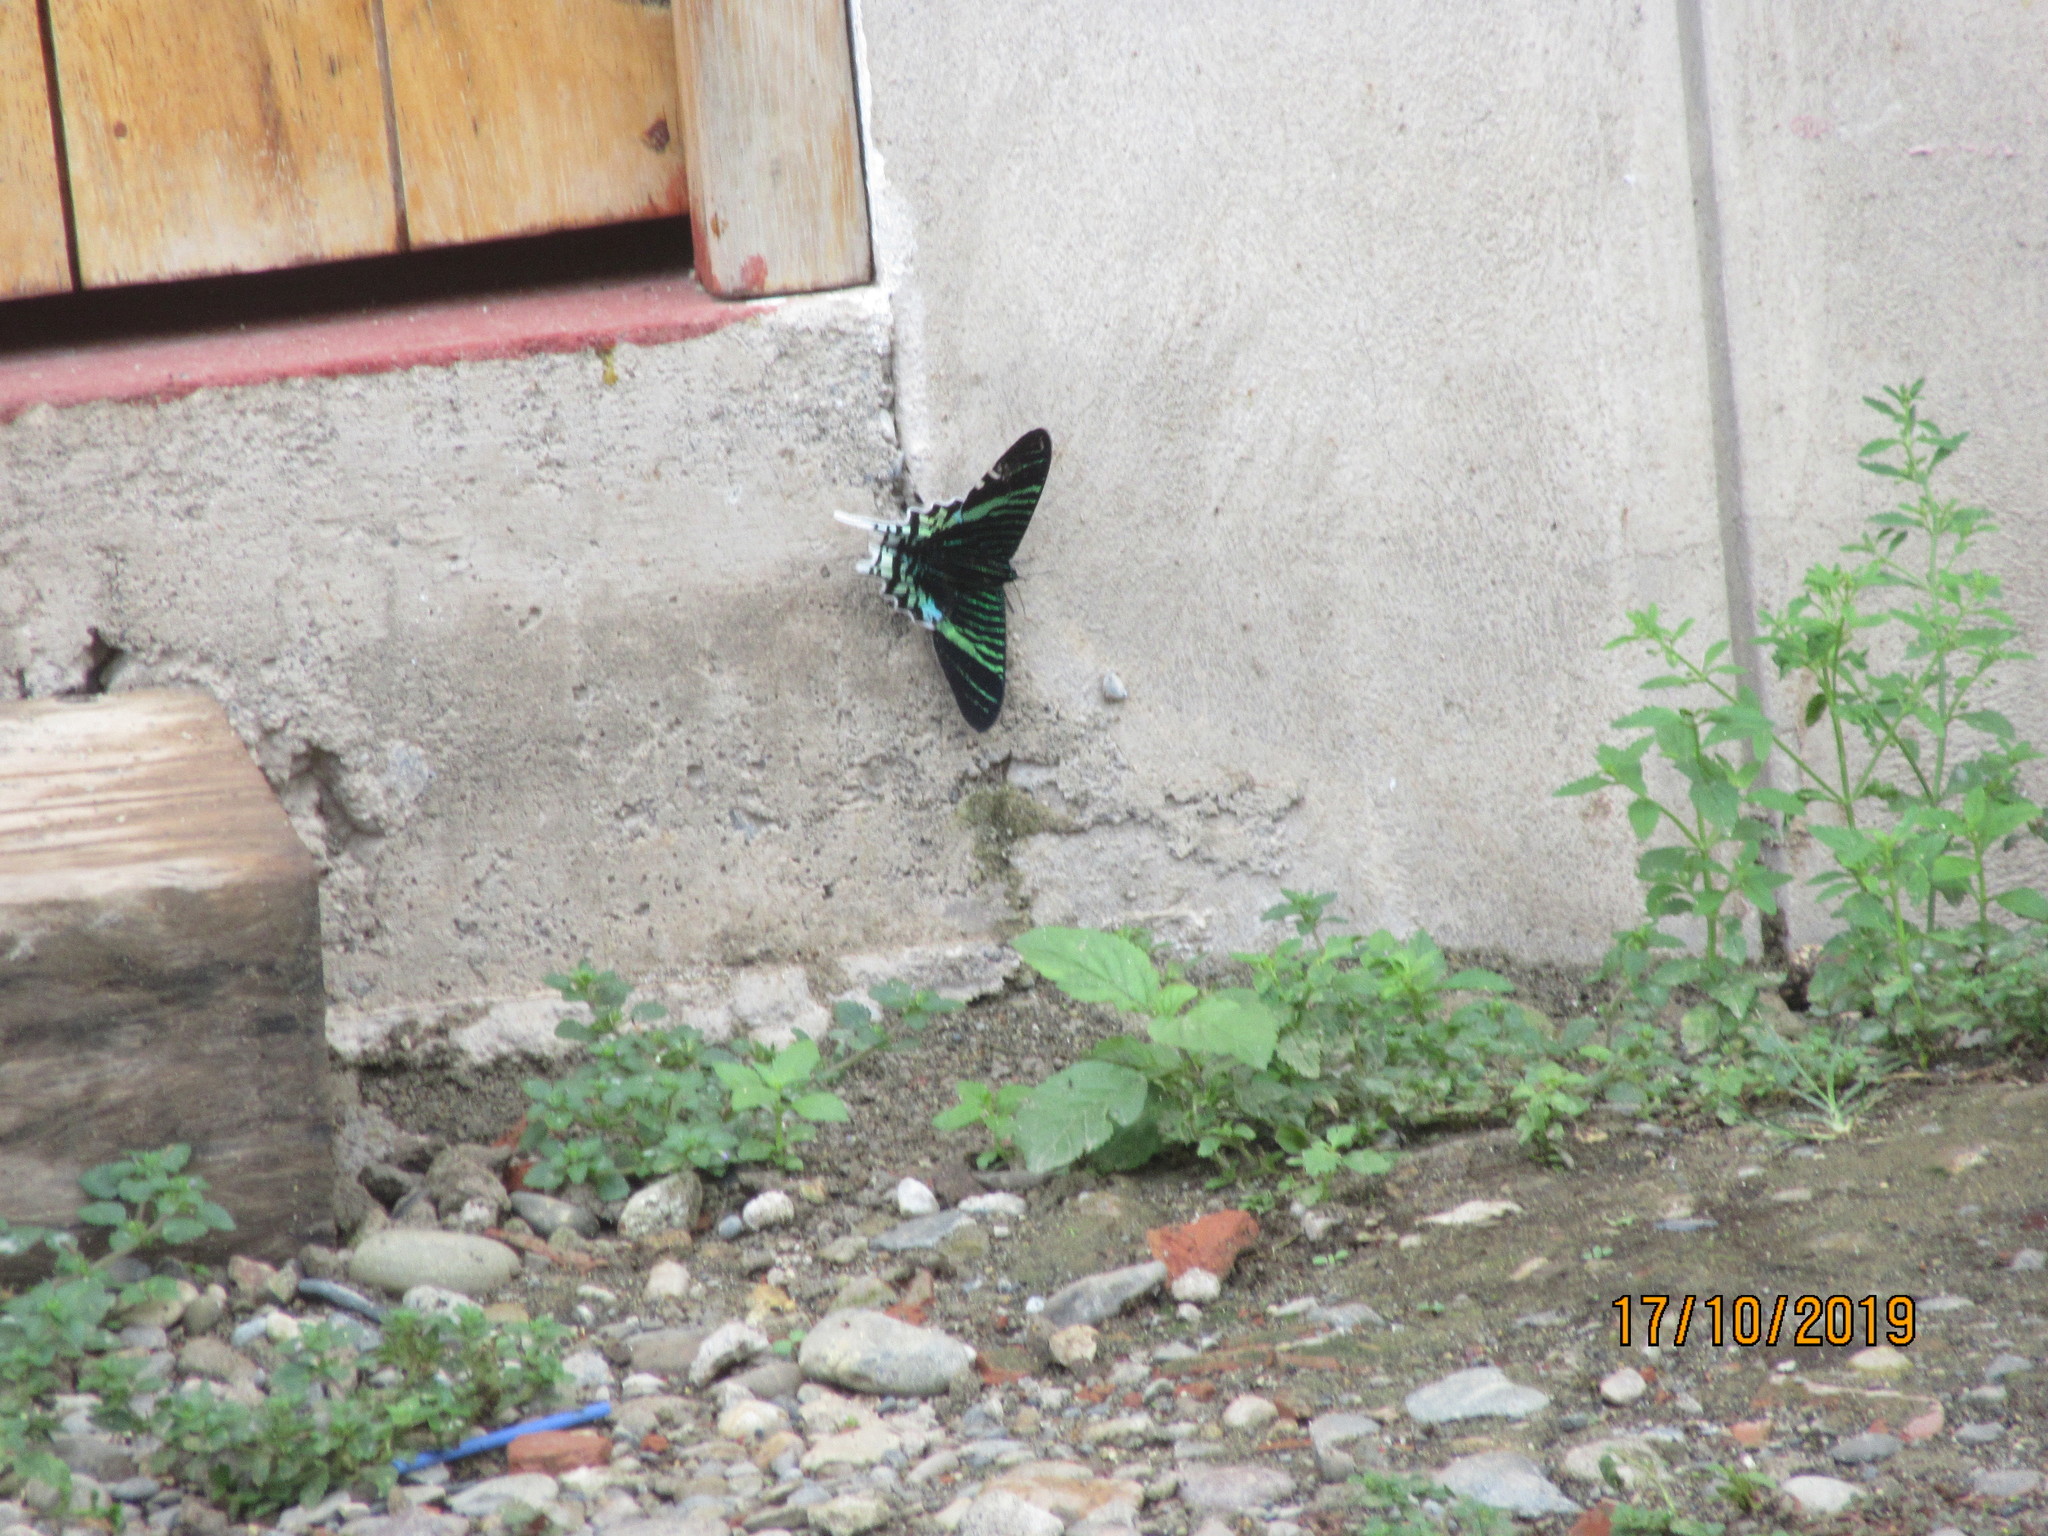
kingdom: Animalia
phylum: Arthropoda
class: Insecta
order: Lepidoptera
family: Uraniidae
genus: Urania
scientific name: Urania leilus
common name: Peacock moth
